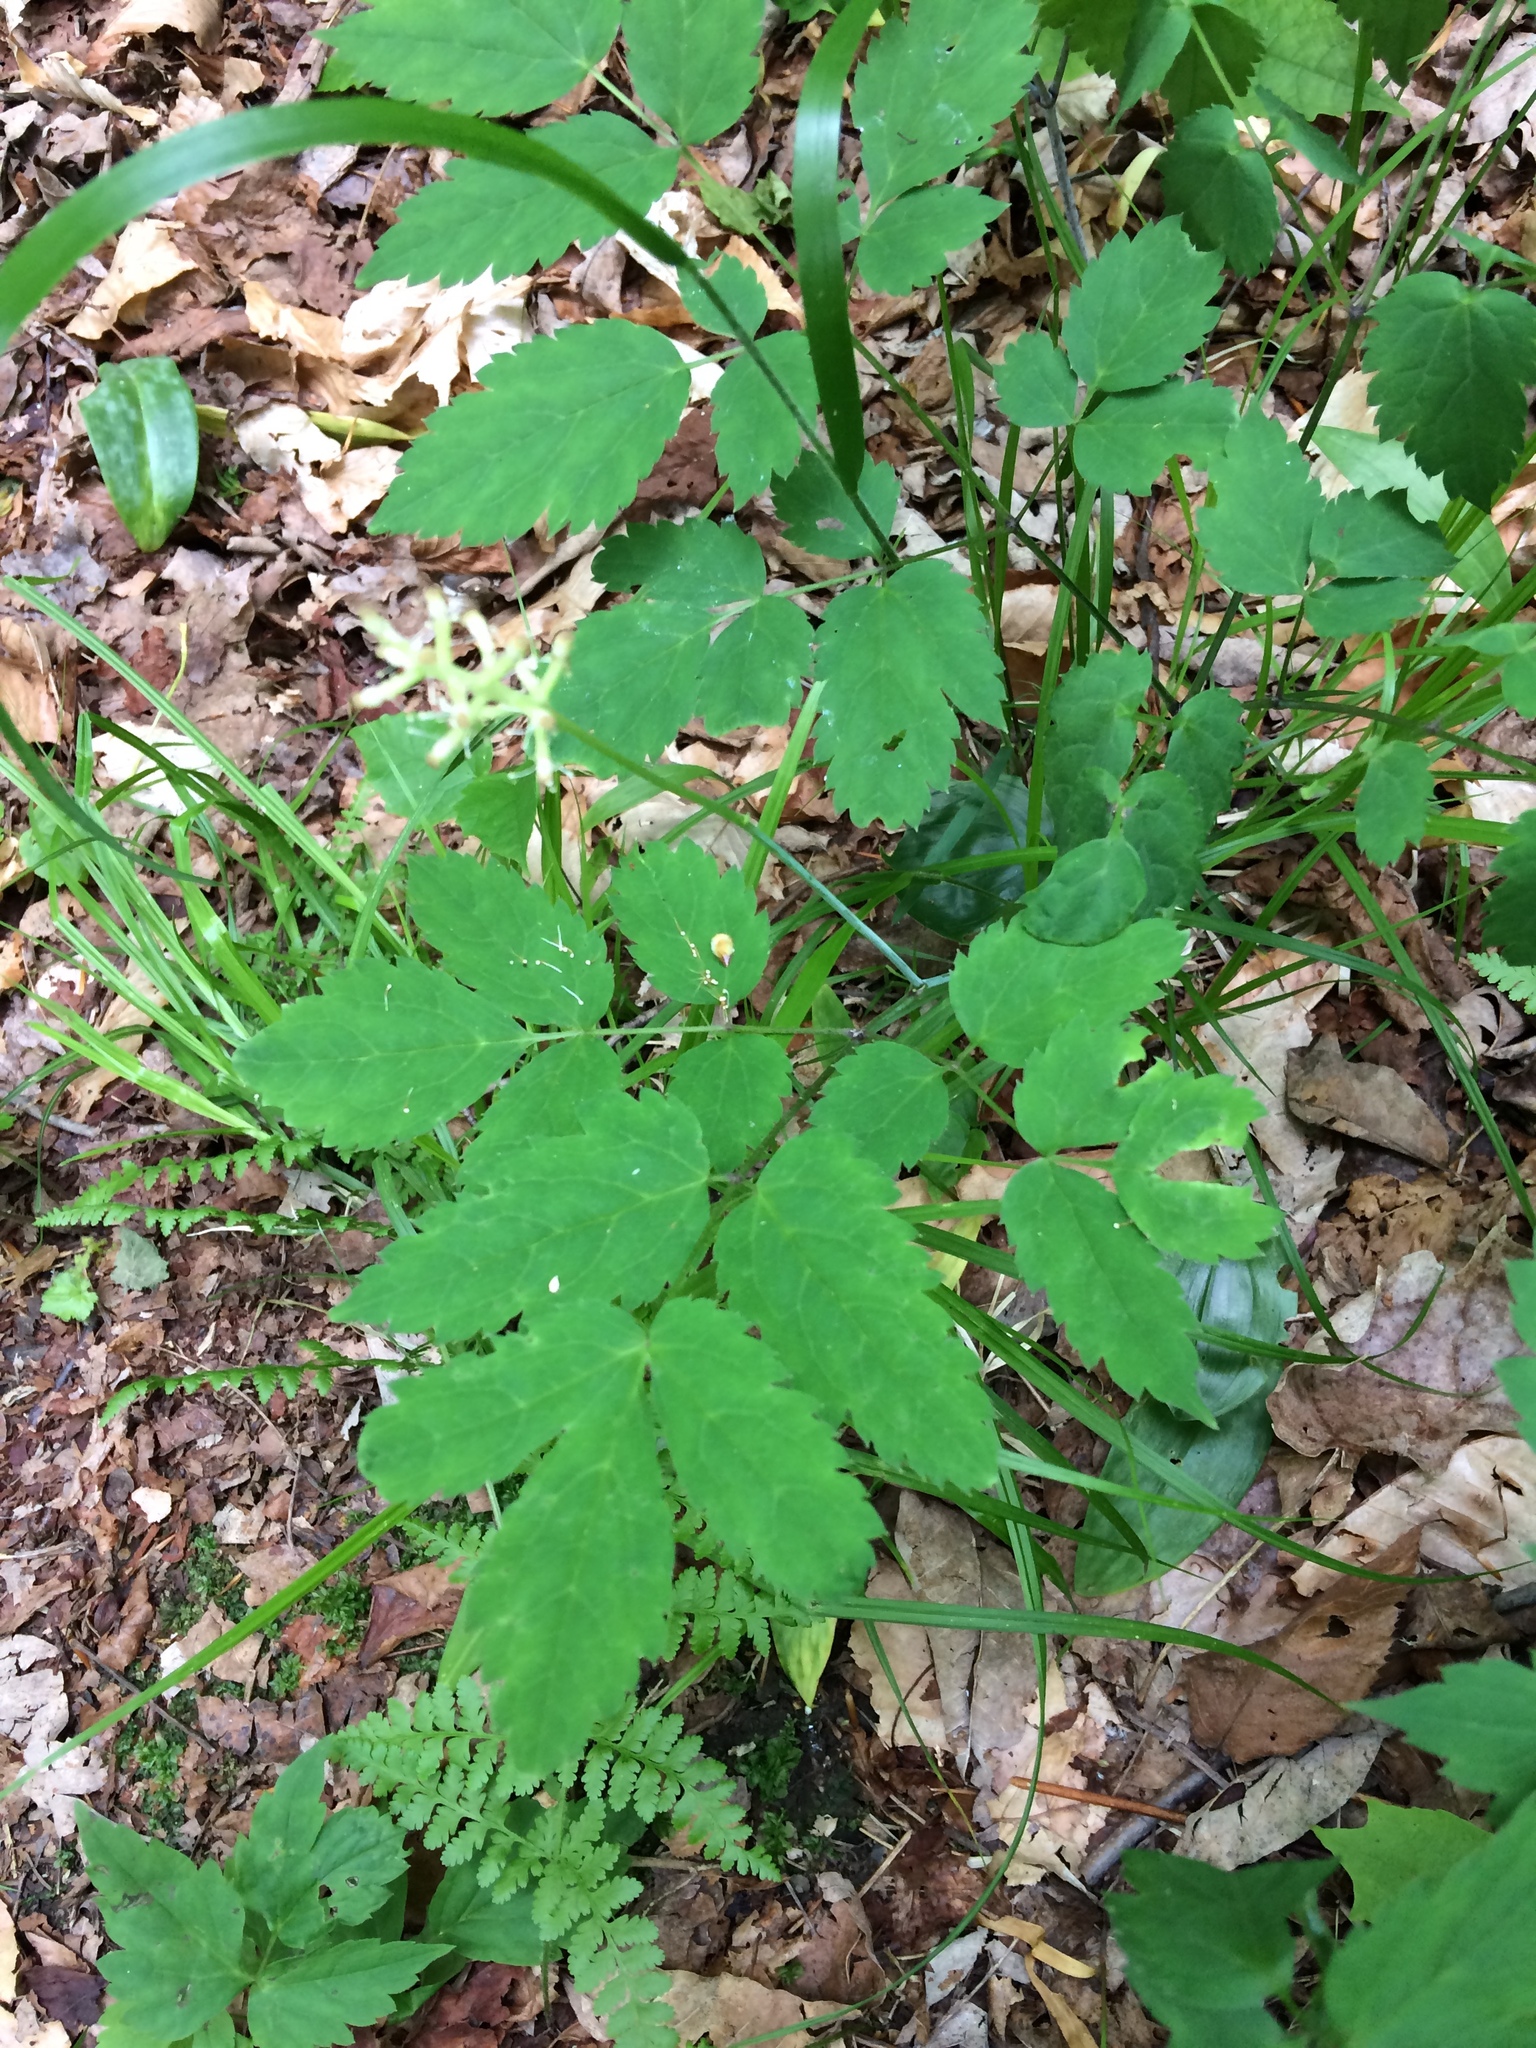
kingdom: Plantae
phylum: Tracheophyta
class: Magnoliopsida
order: Ranunculales
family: Ranunculaceae
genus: Actaea
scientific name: Actaea pachypoda
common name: Doll's-eyes
